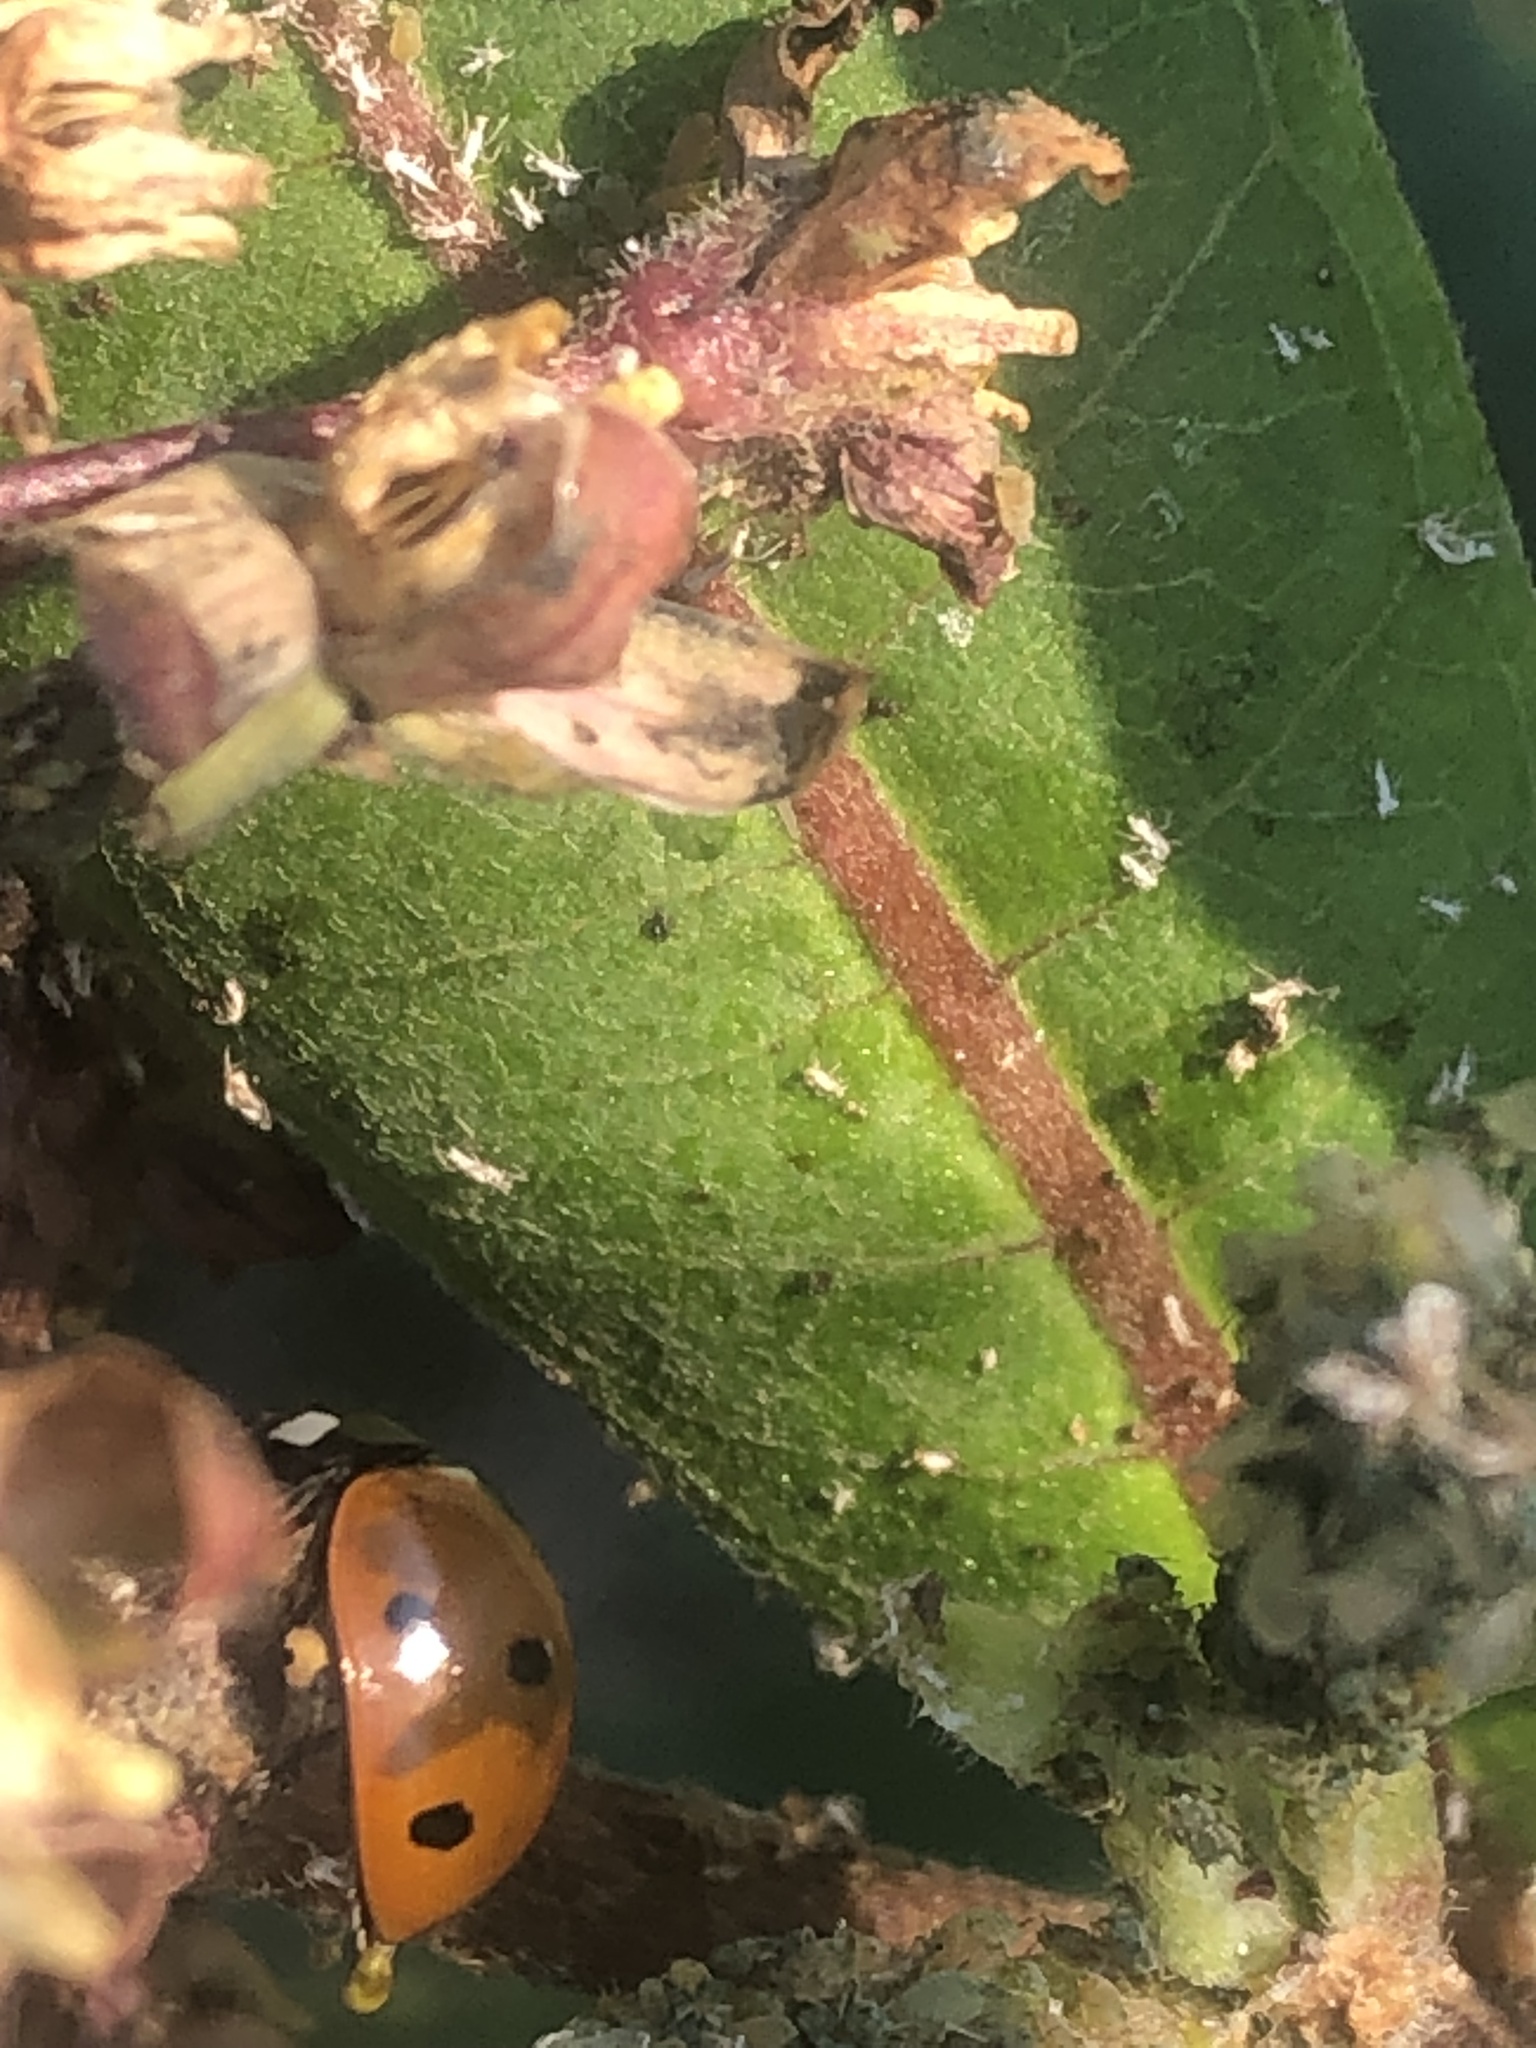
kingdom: Animalia
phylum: Arthropoda
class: Insecta
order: Coleoptera
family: Coccinellidae
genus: Coccinella
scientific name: Coccinella septempunctata
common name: Sevenspotted lady beetle
